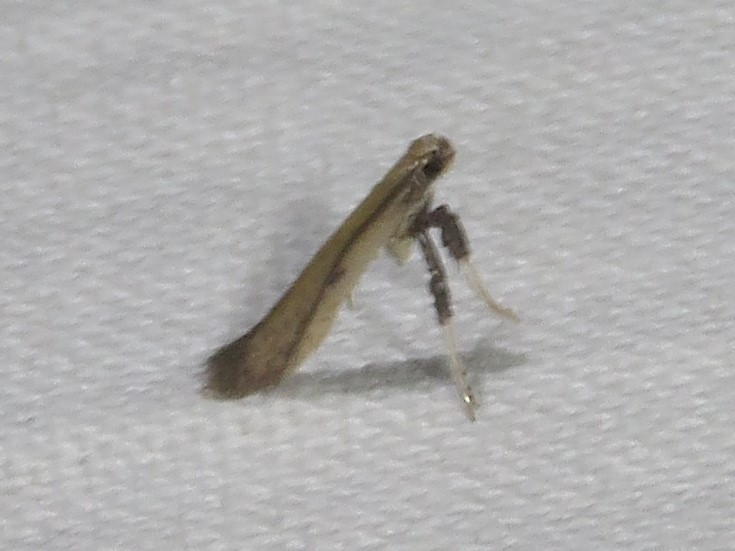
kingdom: Animalia
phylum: Arthropoda
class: Insecta
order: Lepidoptera
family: Gracillariidae
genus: Caloptilia
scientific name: Caloptilia violacella
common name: Tick-trefoil caloptilia moth
